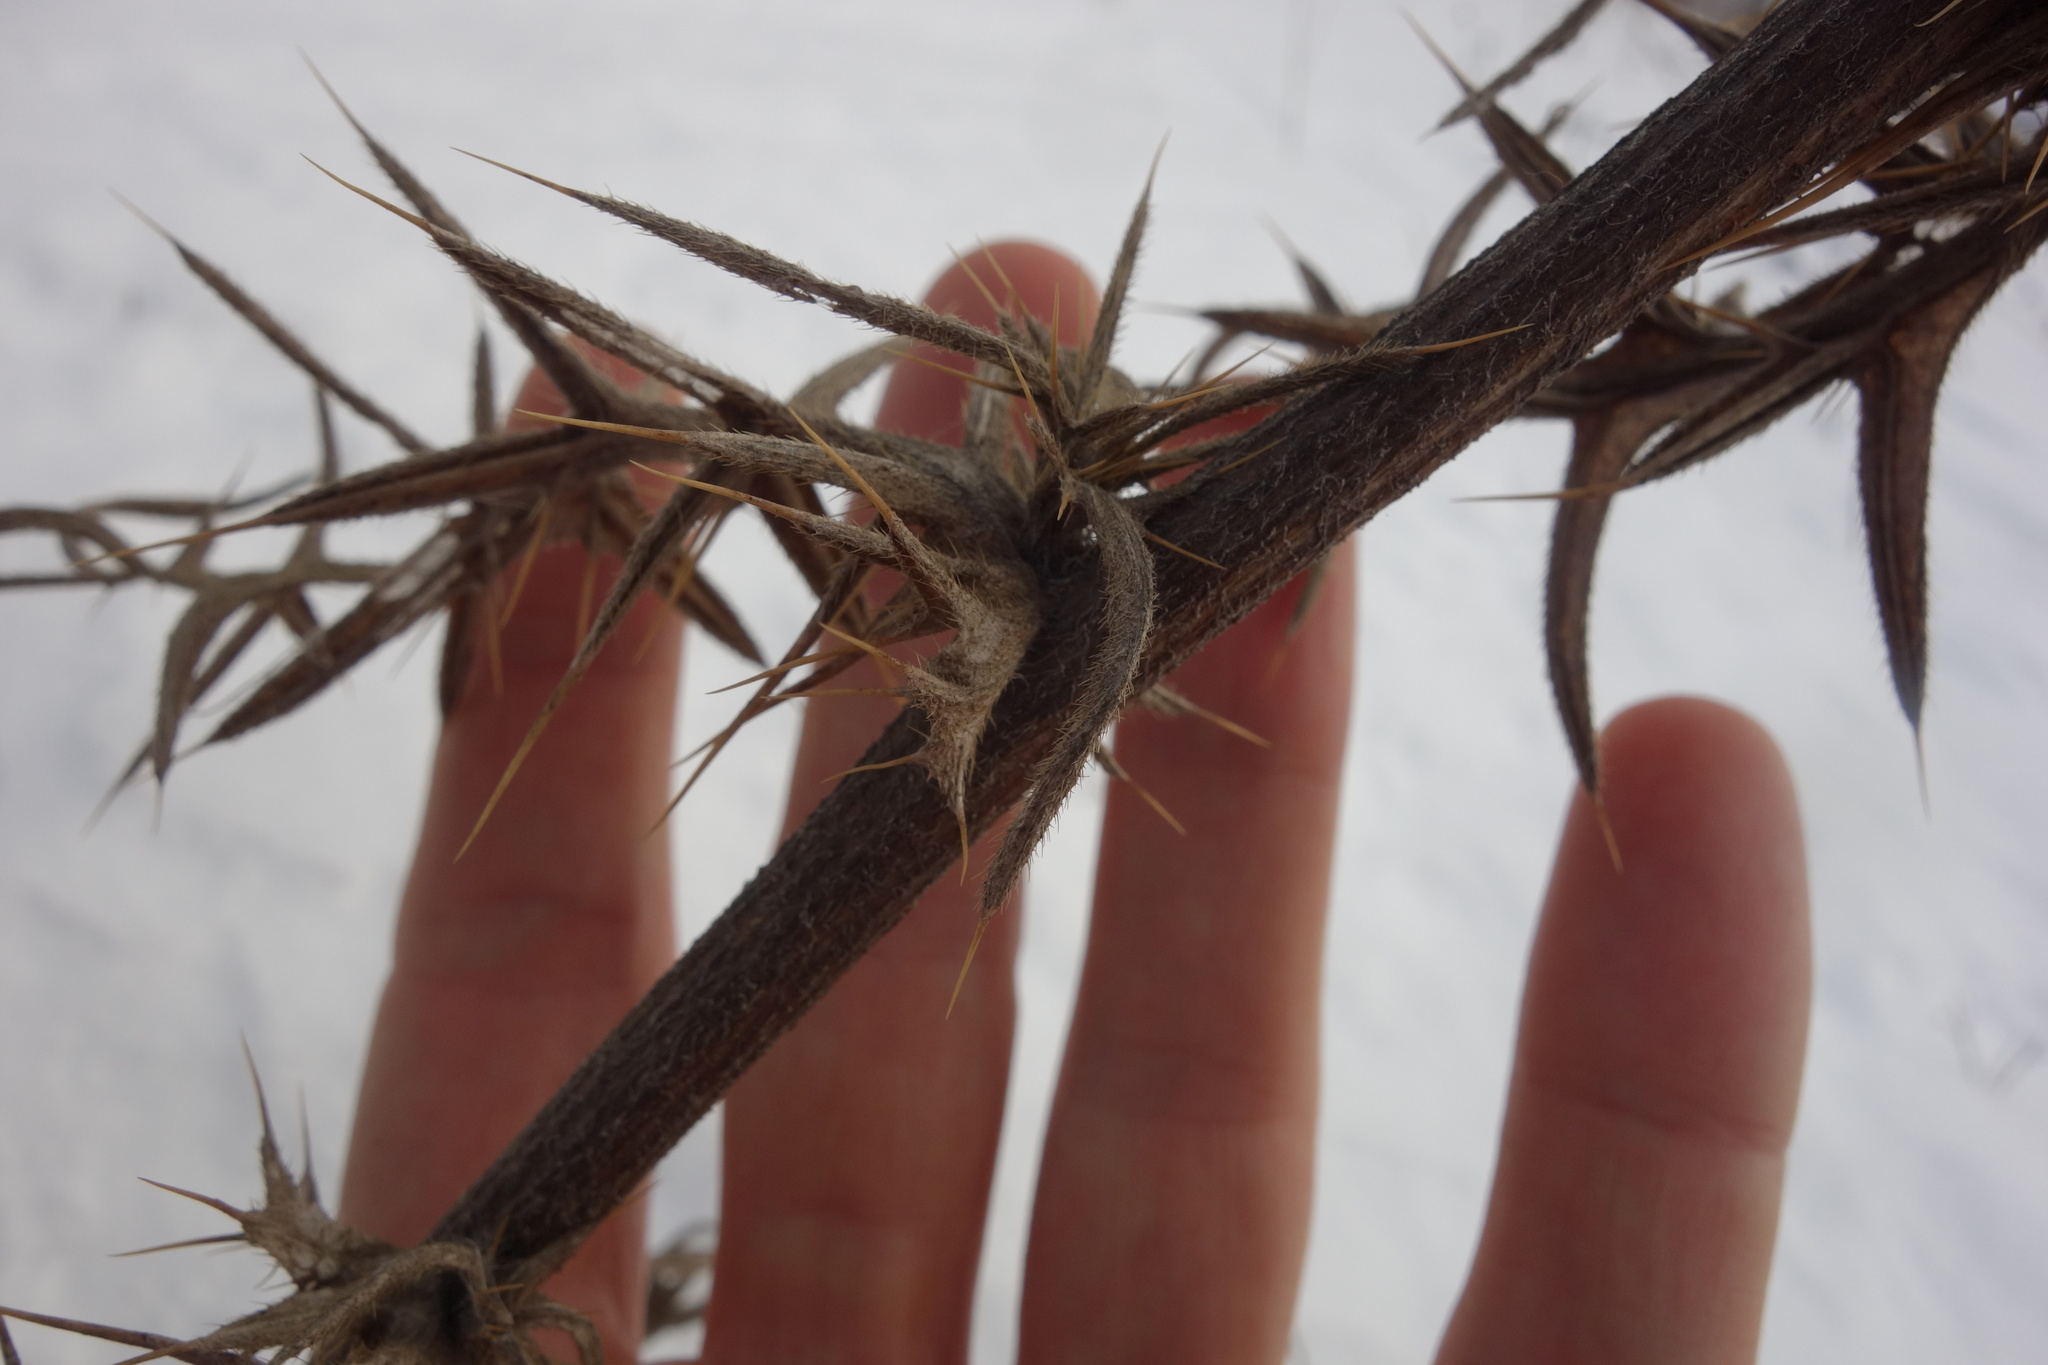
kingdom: Plantae
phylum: Tracheophyta
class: Magnoliopsida
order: Asterales
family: Asteraceae
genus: Lophiolepis
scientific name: Lophiolepis decussata
